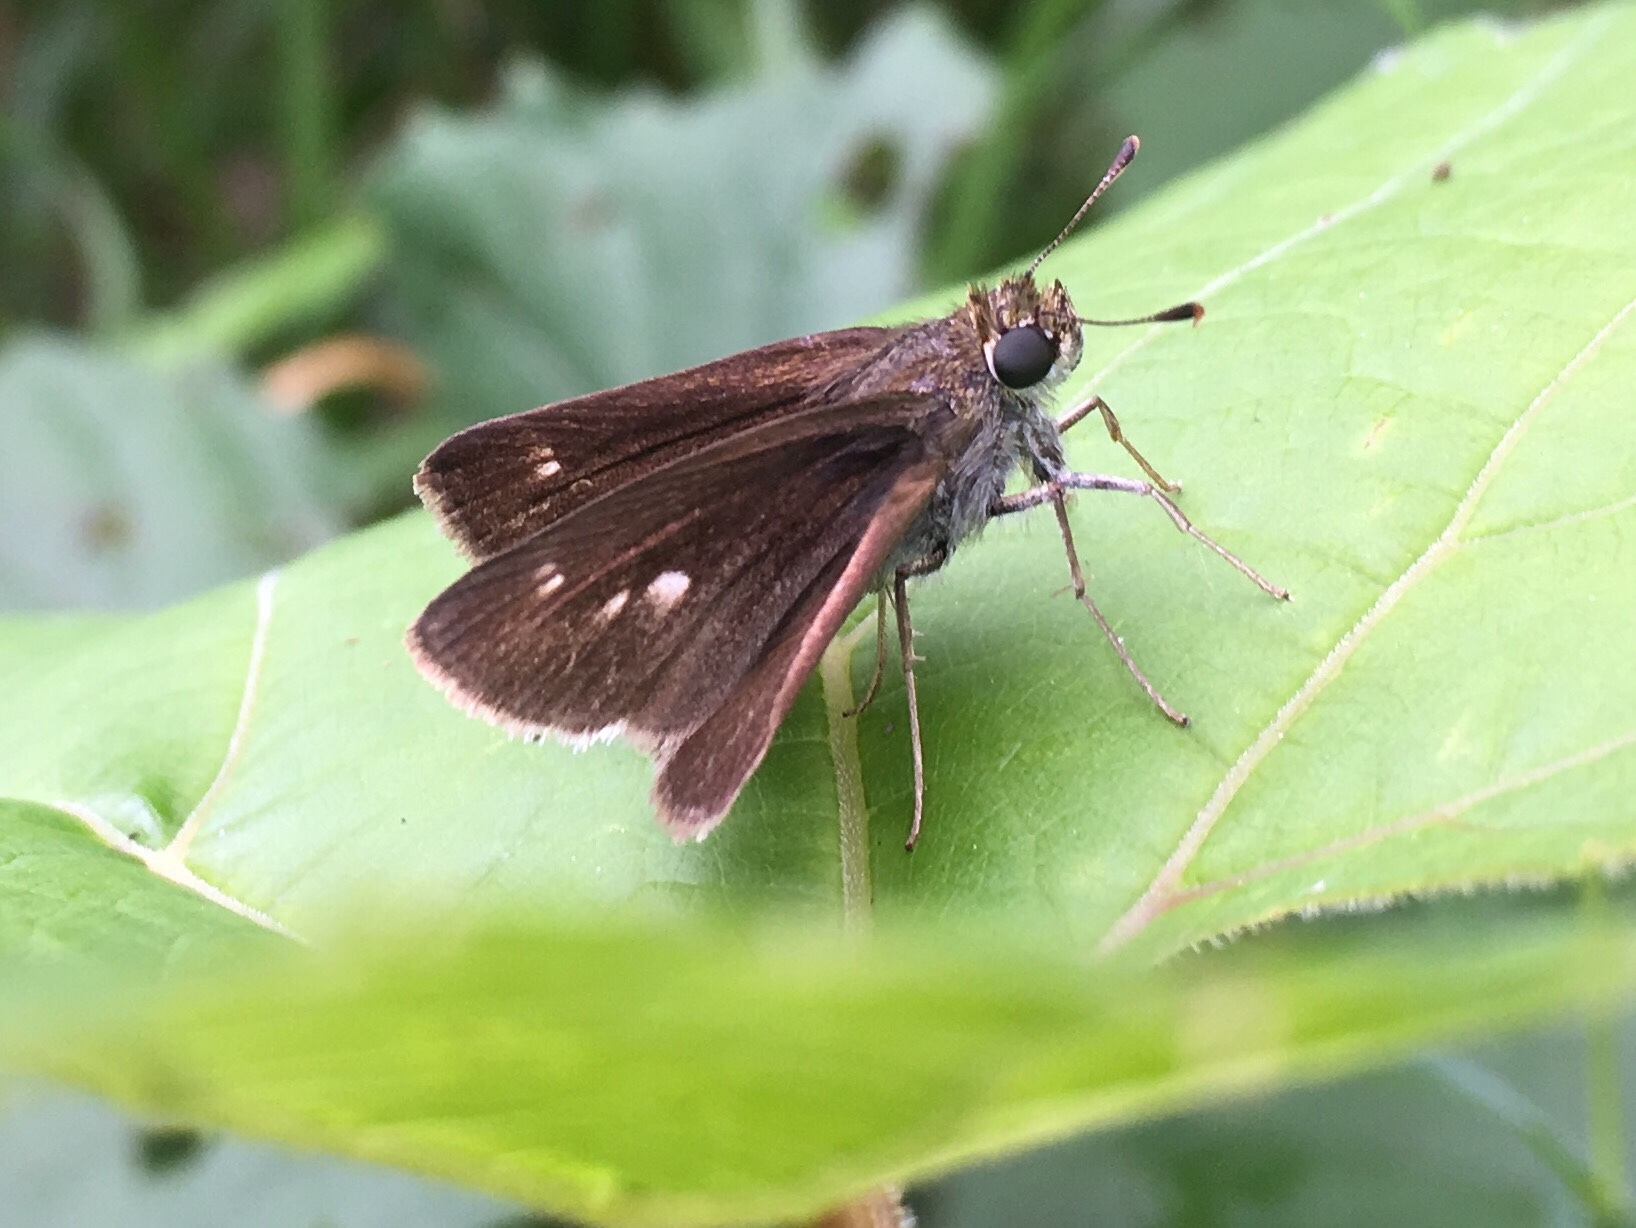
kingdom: Animalia
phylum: Arthropoda
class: Insecta
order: Lepidoptera
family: Hesperiidae
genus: Euphyes
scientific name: Euphyes vestris
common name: Dun skipper
